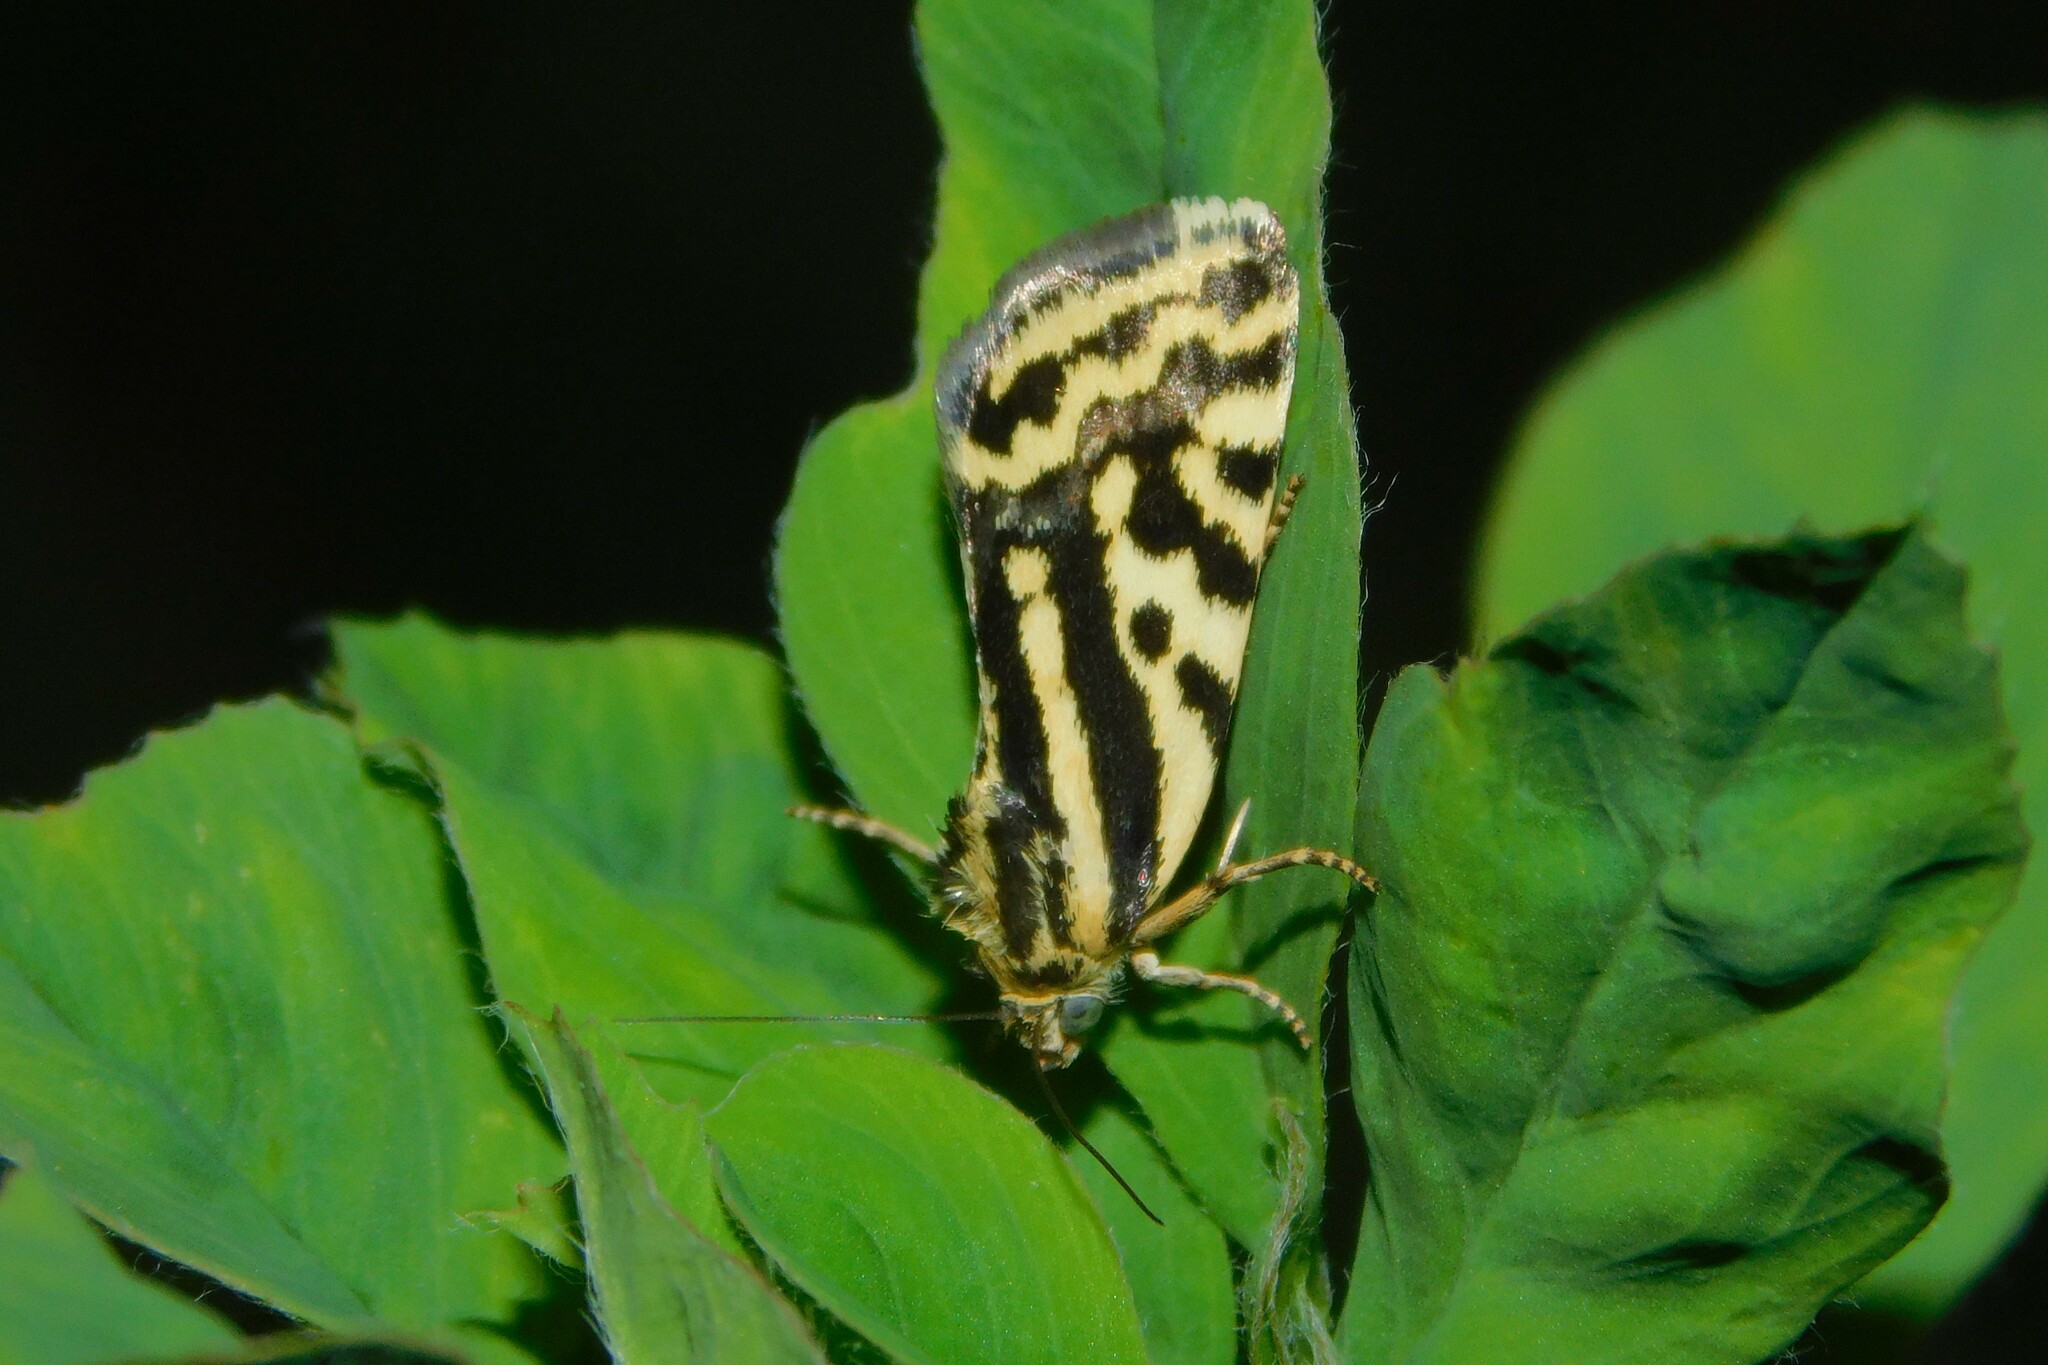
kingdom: Animalia
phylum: Arthropoda
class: Insecta
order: Lepidoptera
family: Noctuidae
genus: Acontia
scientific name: Acontia trabealis
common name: Spotted sulphur
